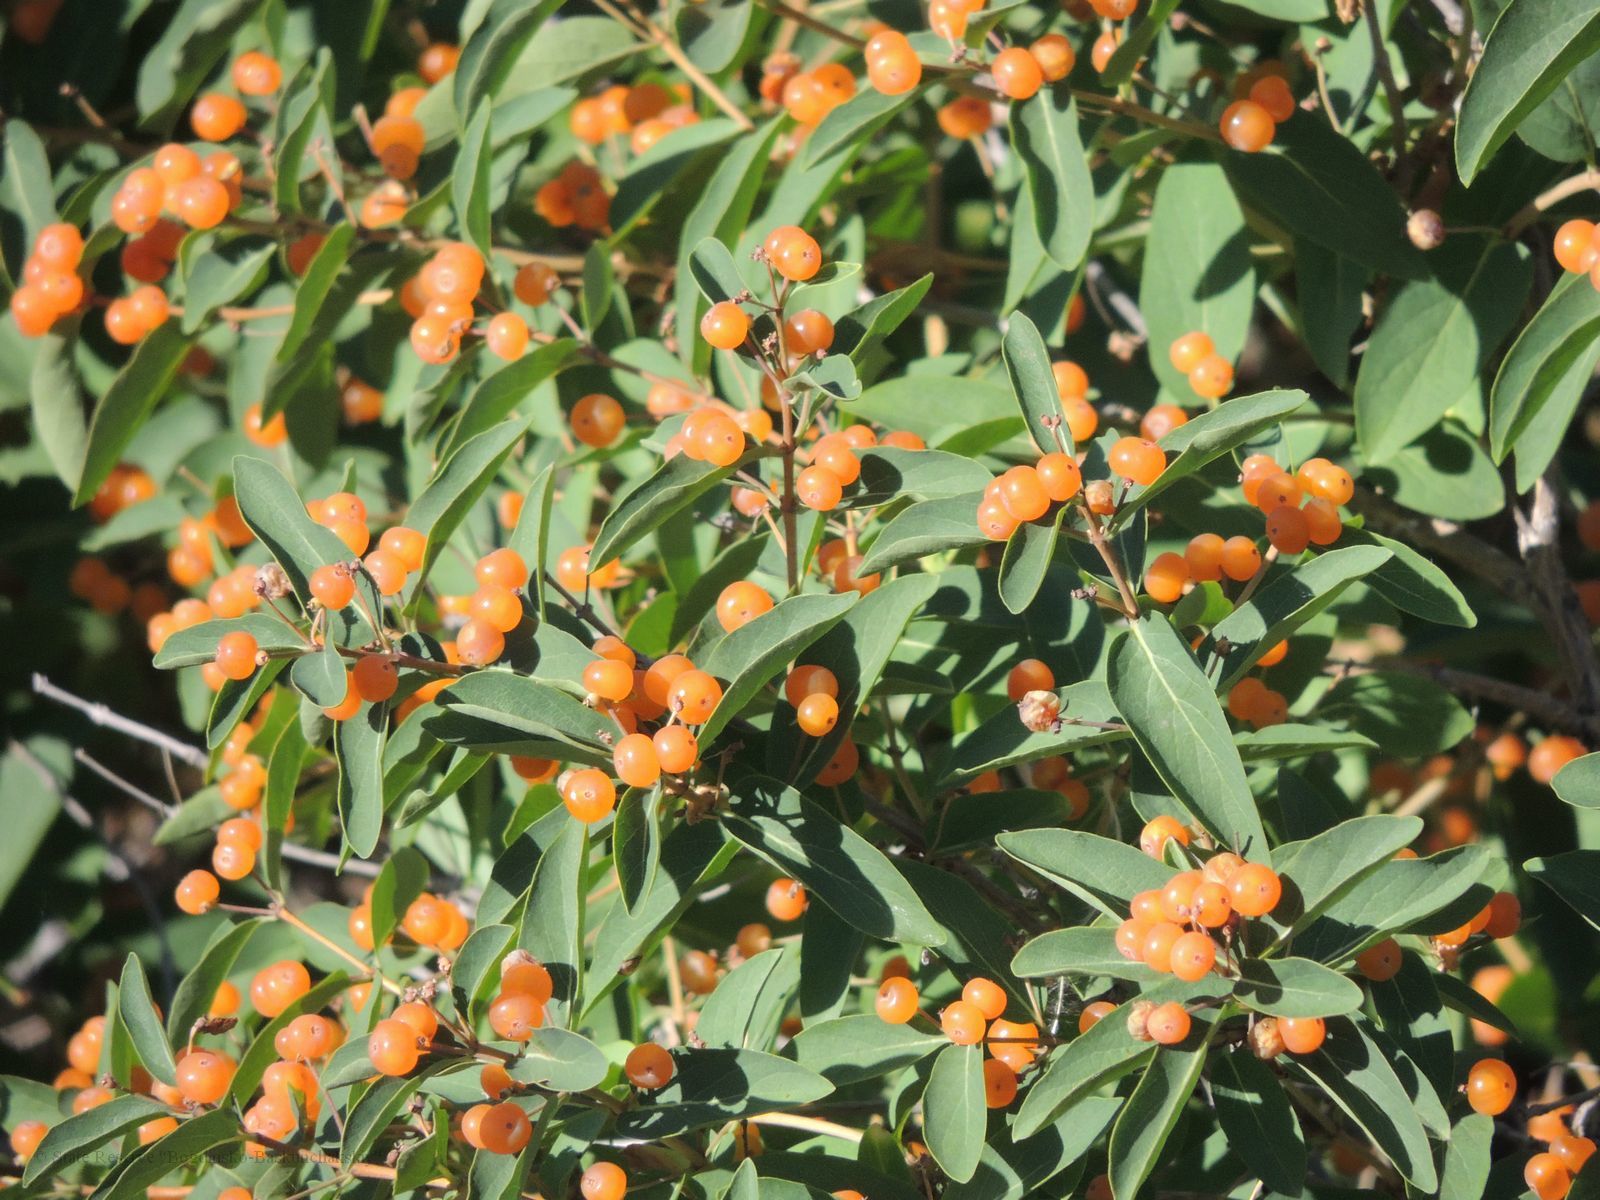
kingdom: Plantae
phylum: Tracheophyta
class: Magnoliopsida
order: Dipsacales
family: Caprifoliaceae
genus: Lonicera
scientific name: Lonicera tatarica
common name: Tatarian honeysuckle
